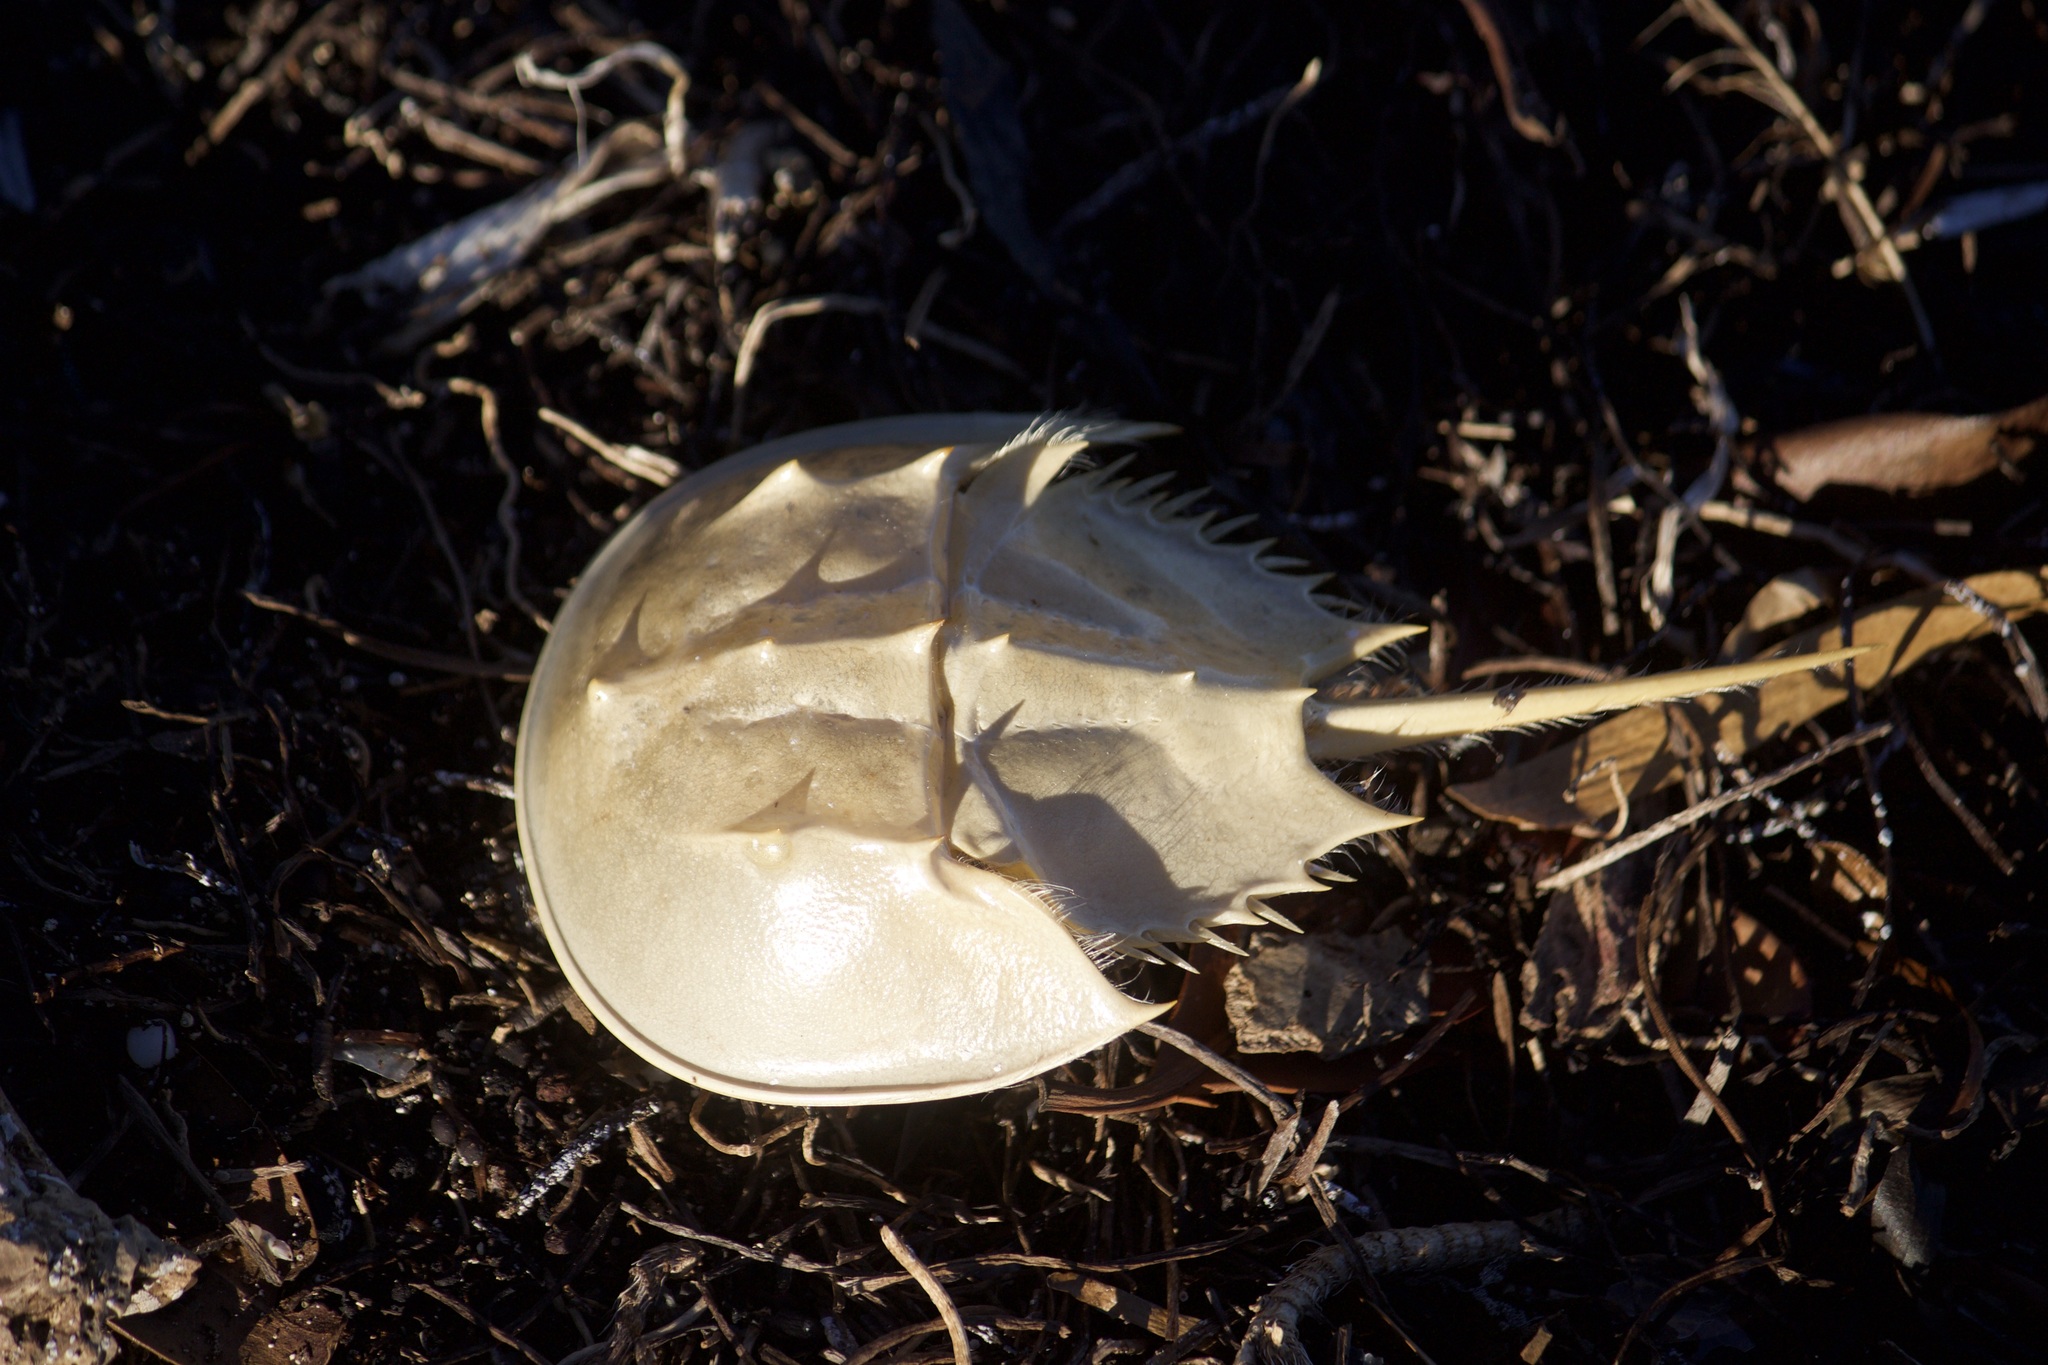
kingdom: Animalia
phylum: Arthropoda
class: Merostomata
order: Xiphosurida
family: Limulidae
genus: Limulus
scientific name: Limulus polyphemus
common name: Horseshoe crab
